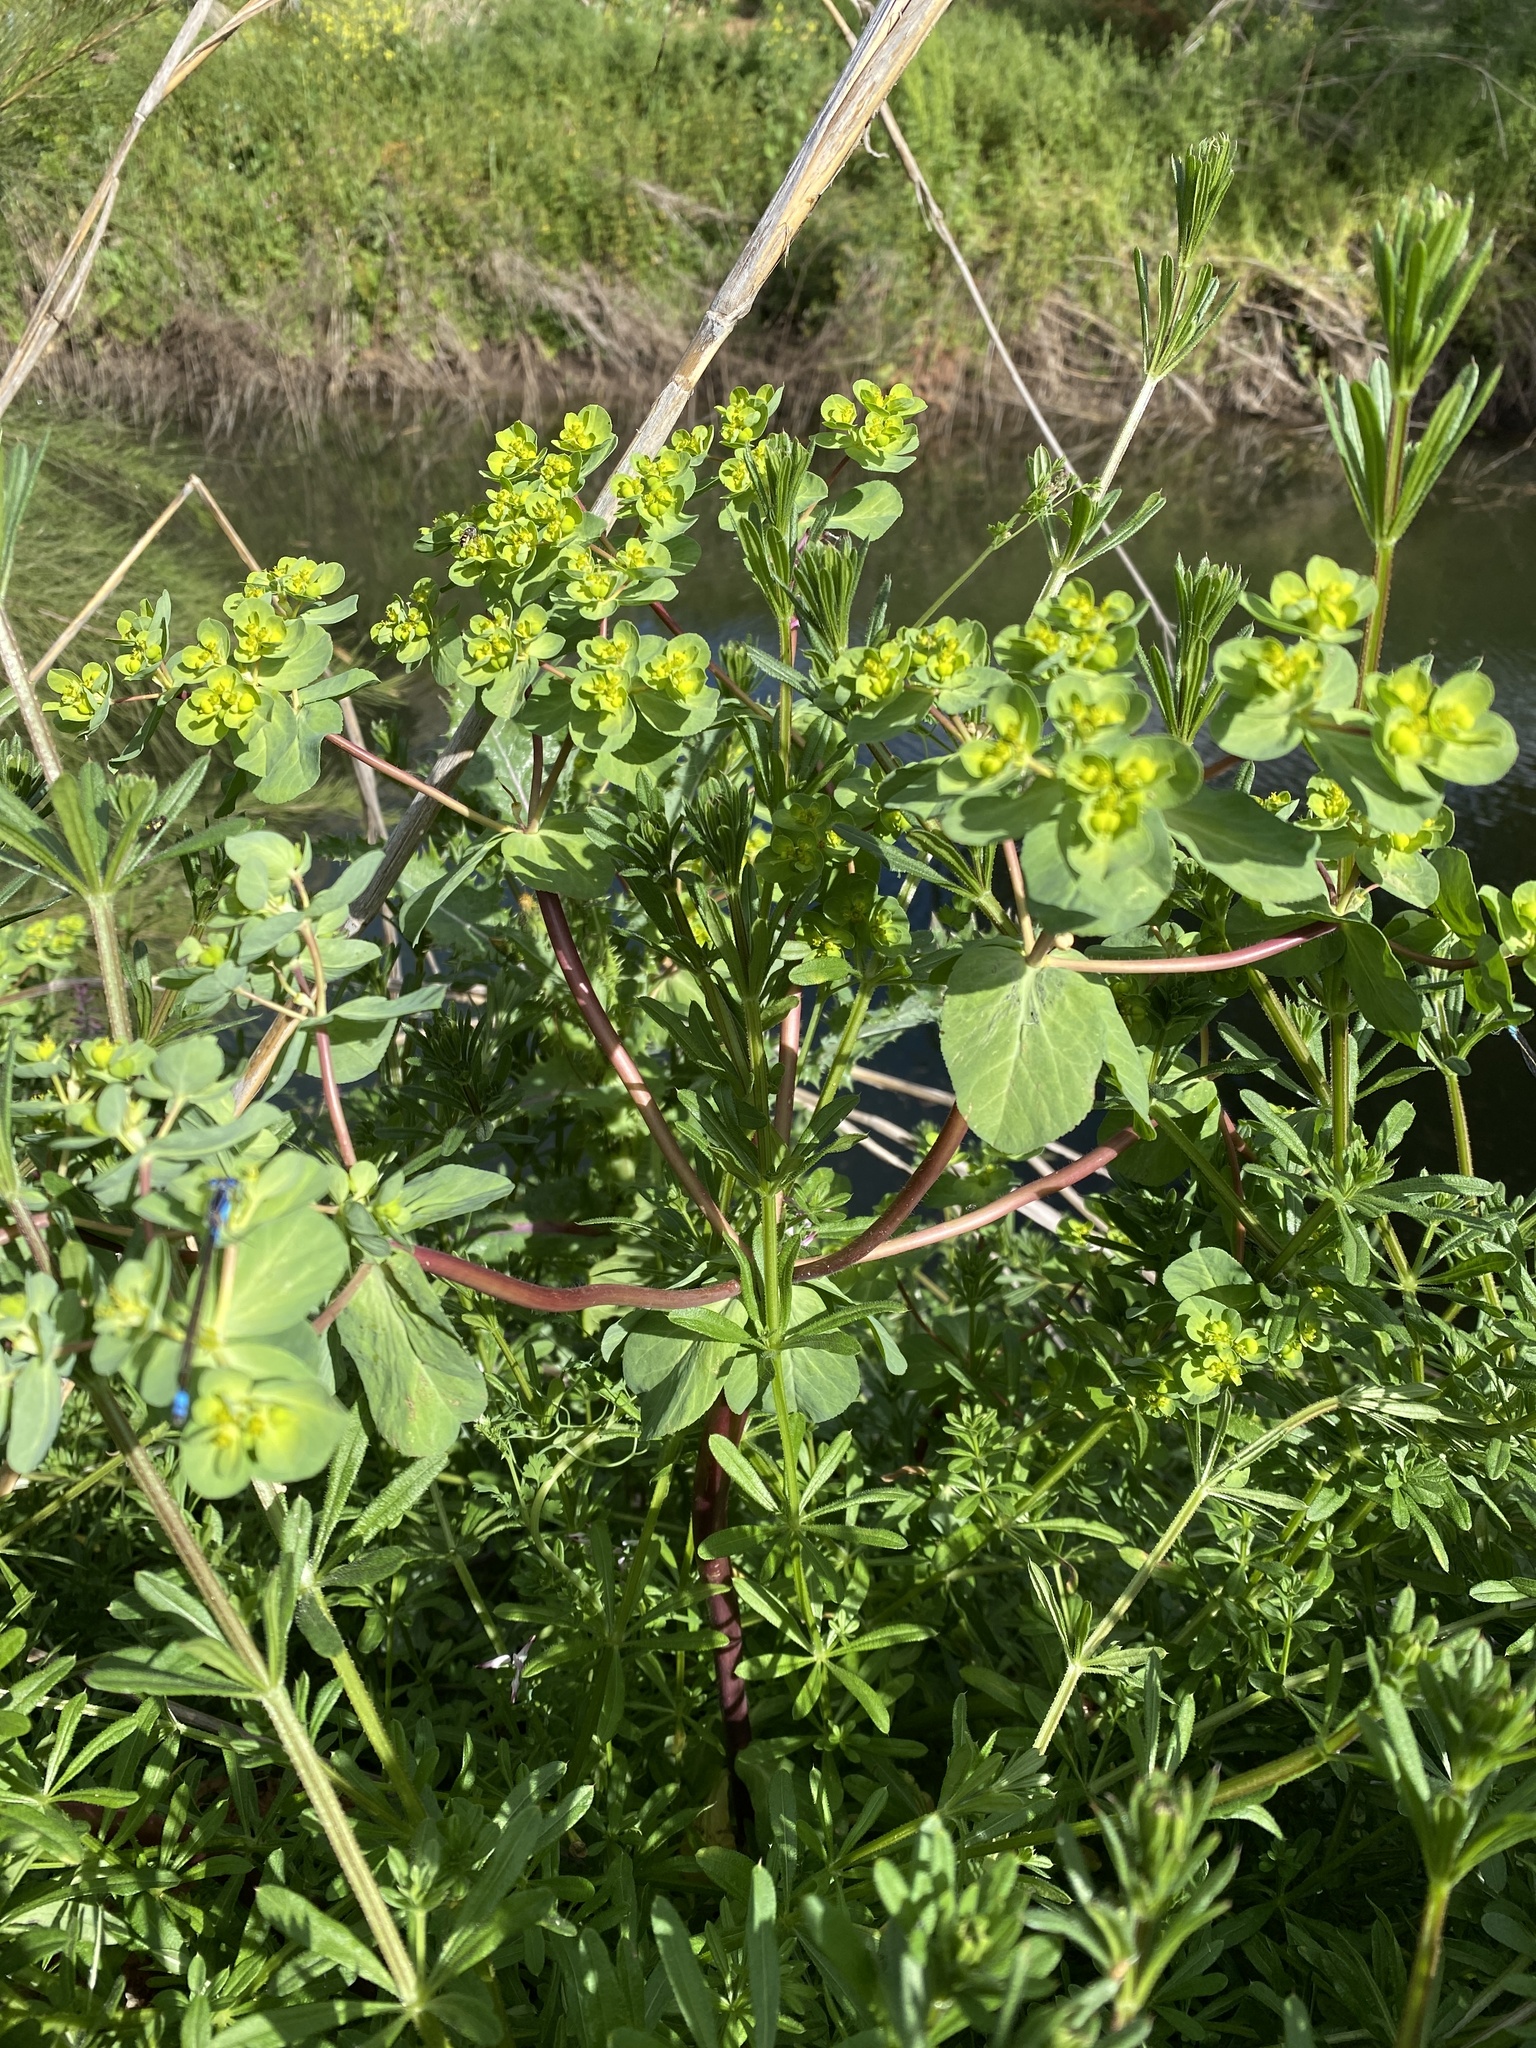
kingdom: Plantae
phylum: Tracheophyta
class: Magnoliopsida
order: Malpighiales
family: Euphorbiaceae
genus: Euphorbia
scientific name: Euphorbia helioscopia
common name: Sun spurge
